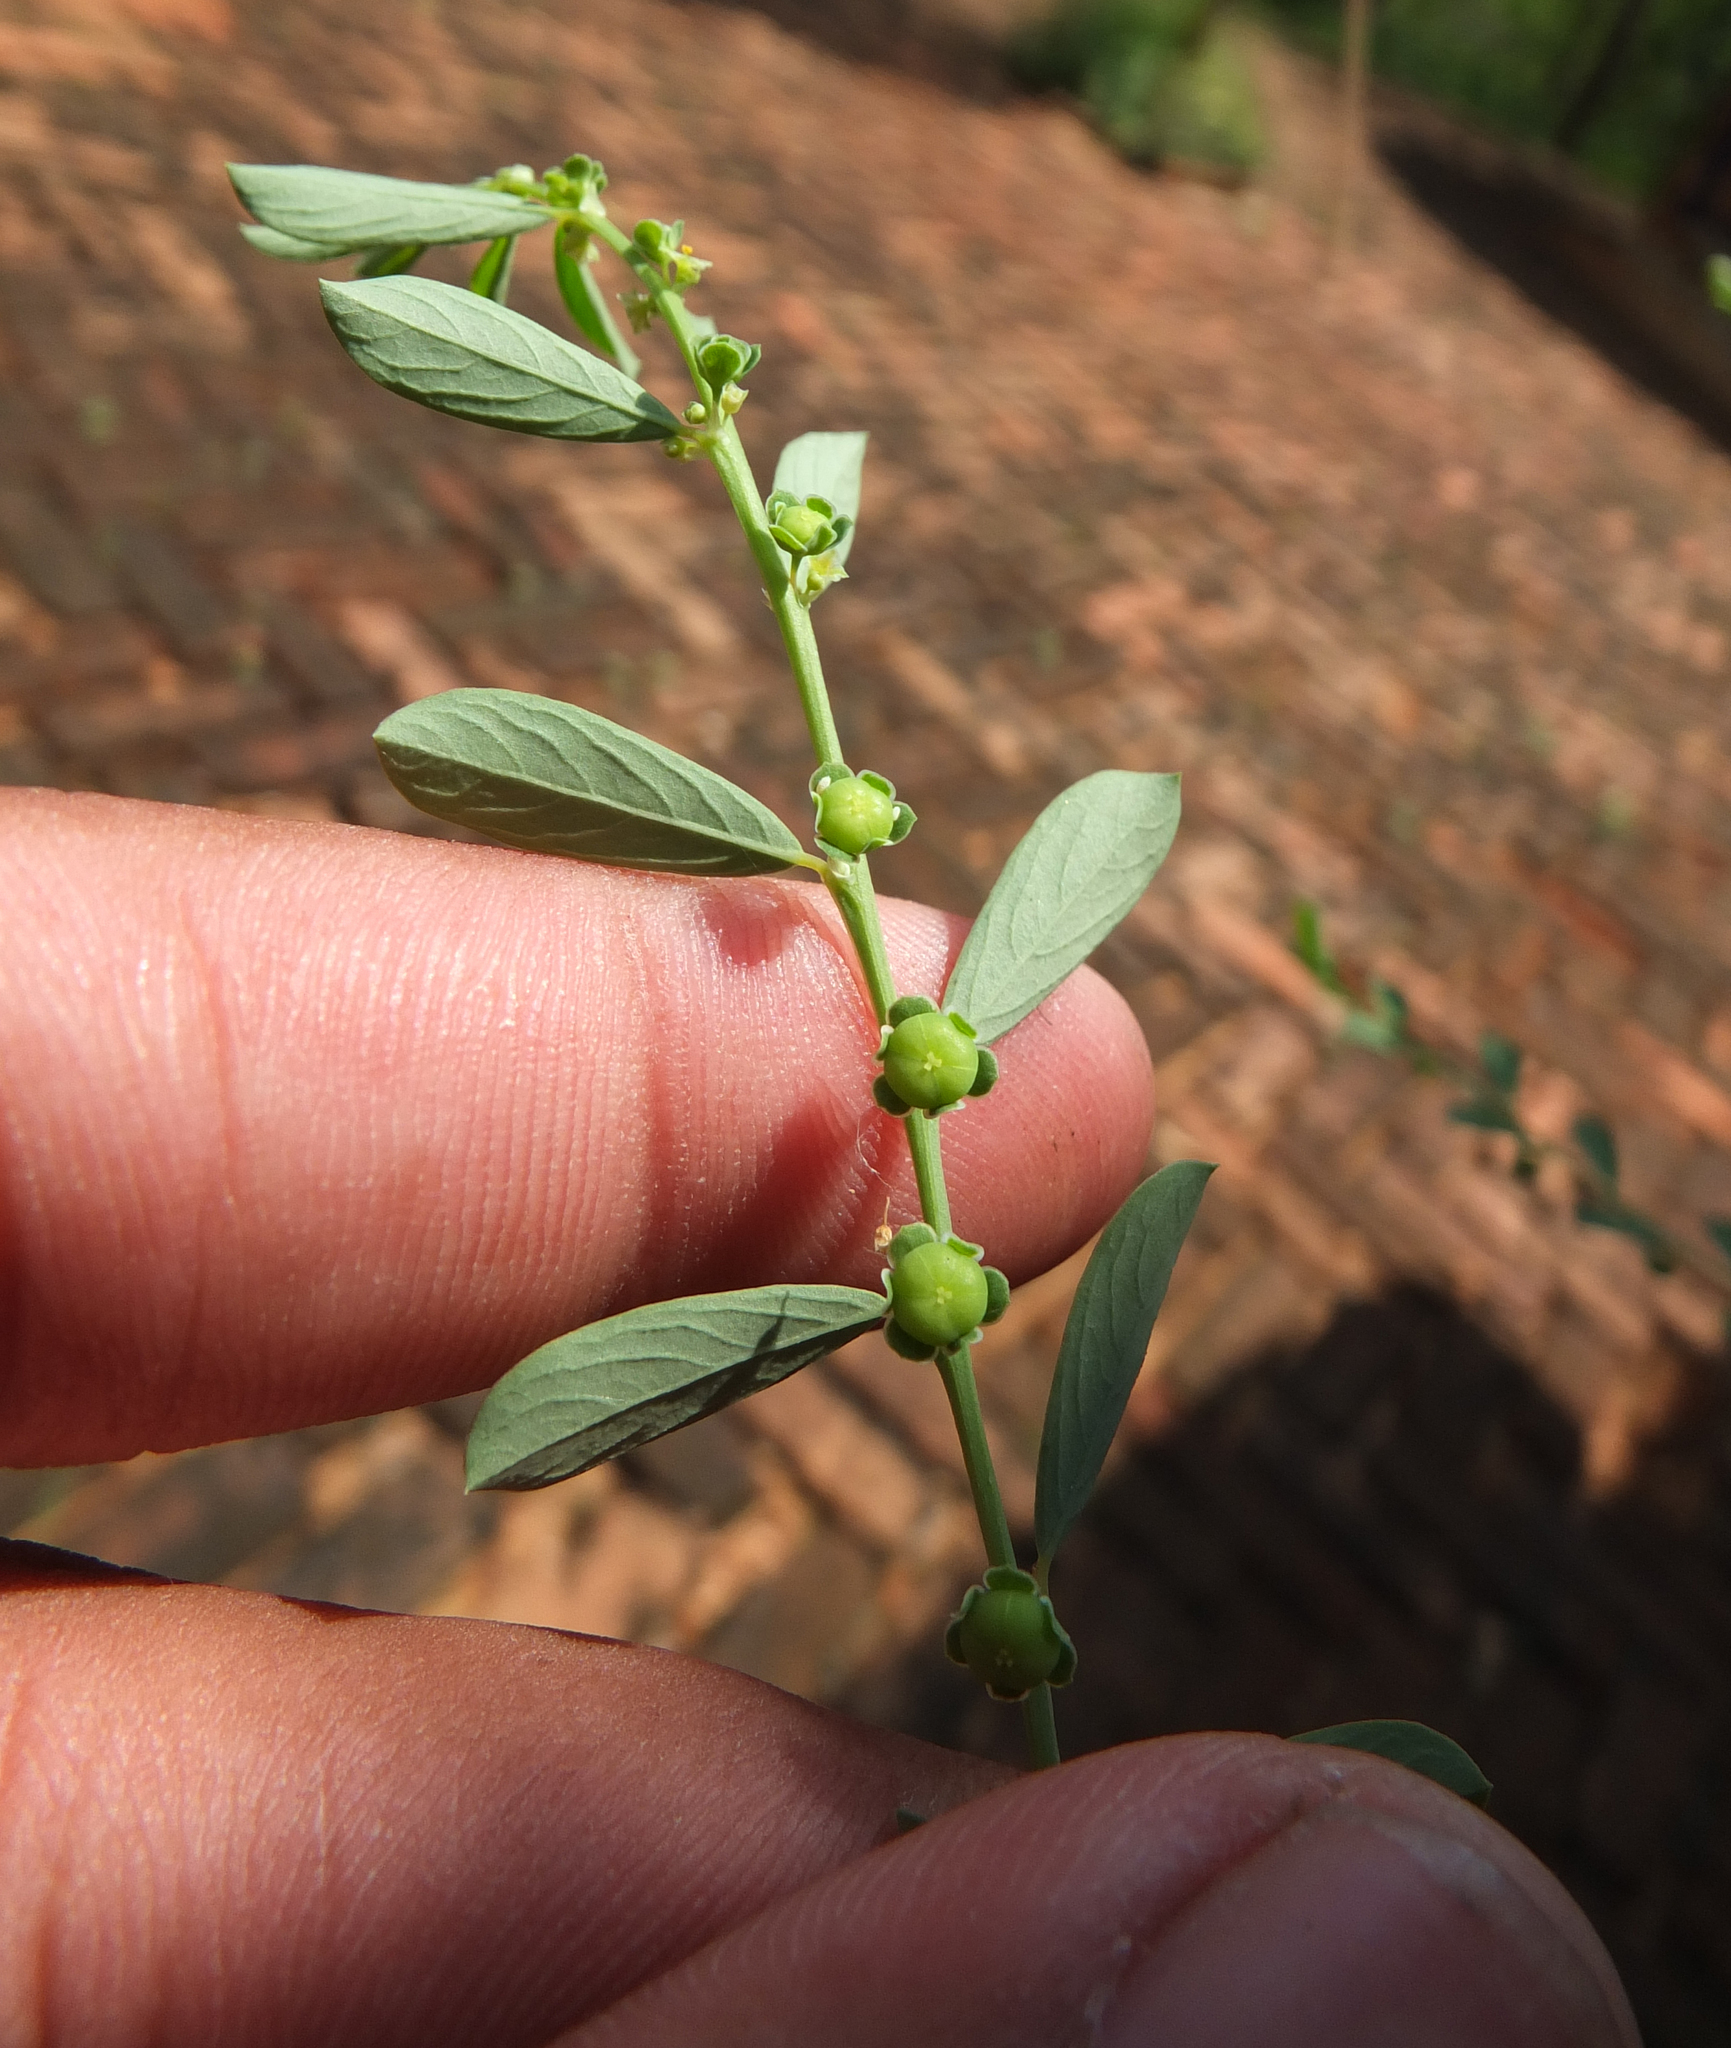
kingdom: Plantae
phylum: Tracheophyta
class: Magnoliopsida
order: Malpighiales
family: Phyllanthaceae
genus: Phyllanthus
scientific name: Phyllanthus maderaspatensis
